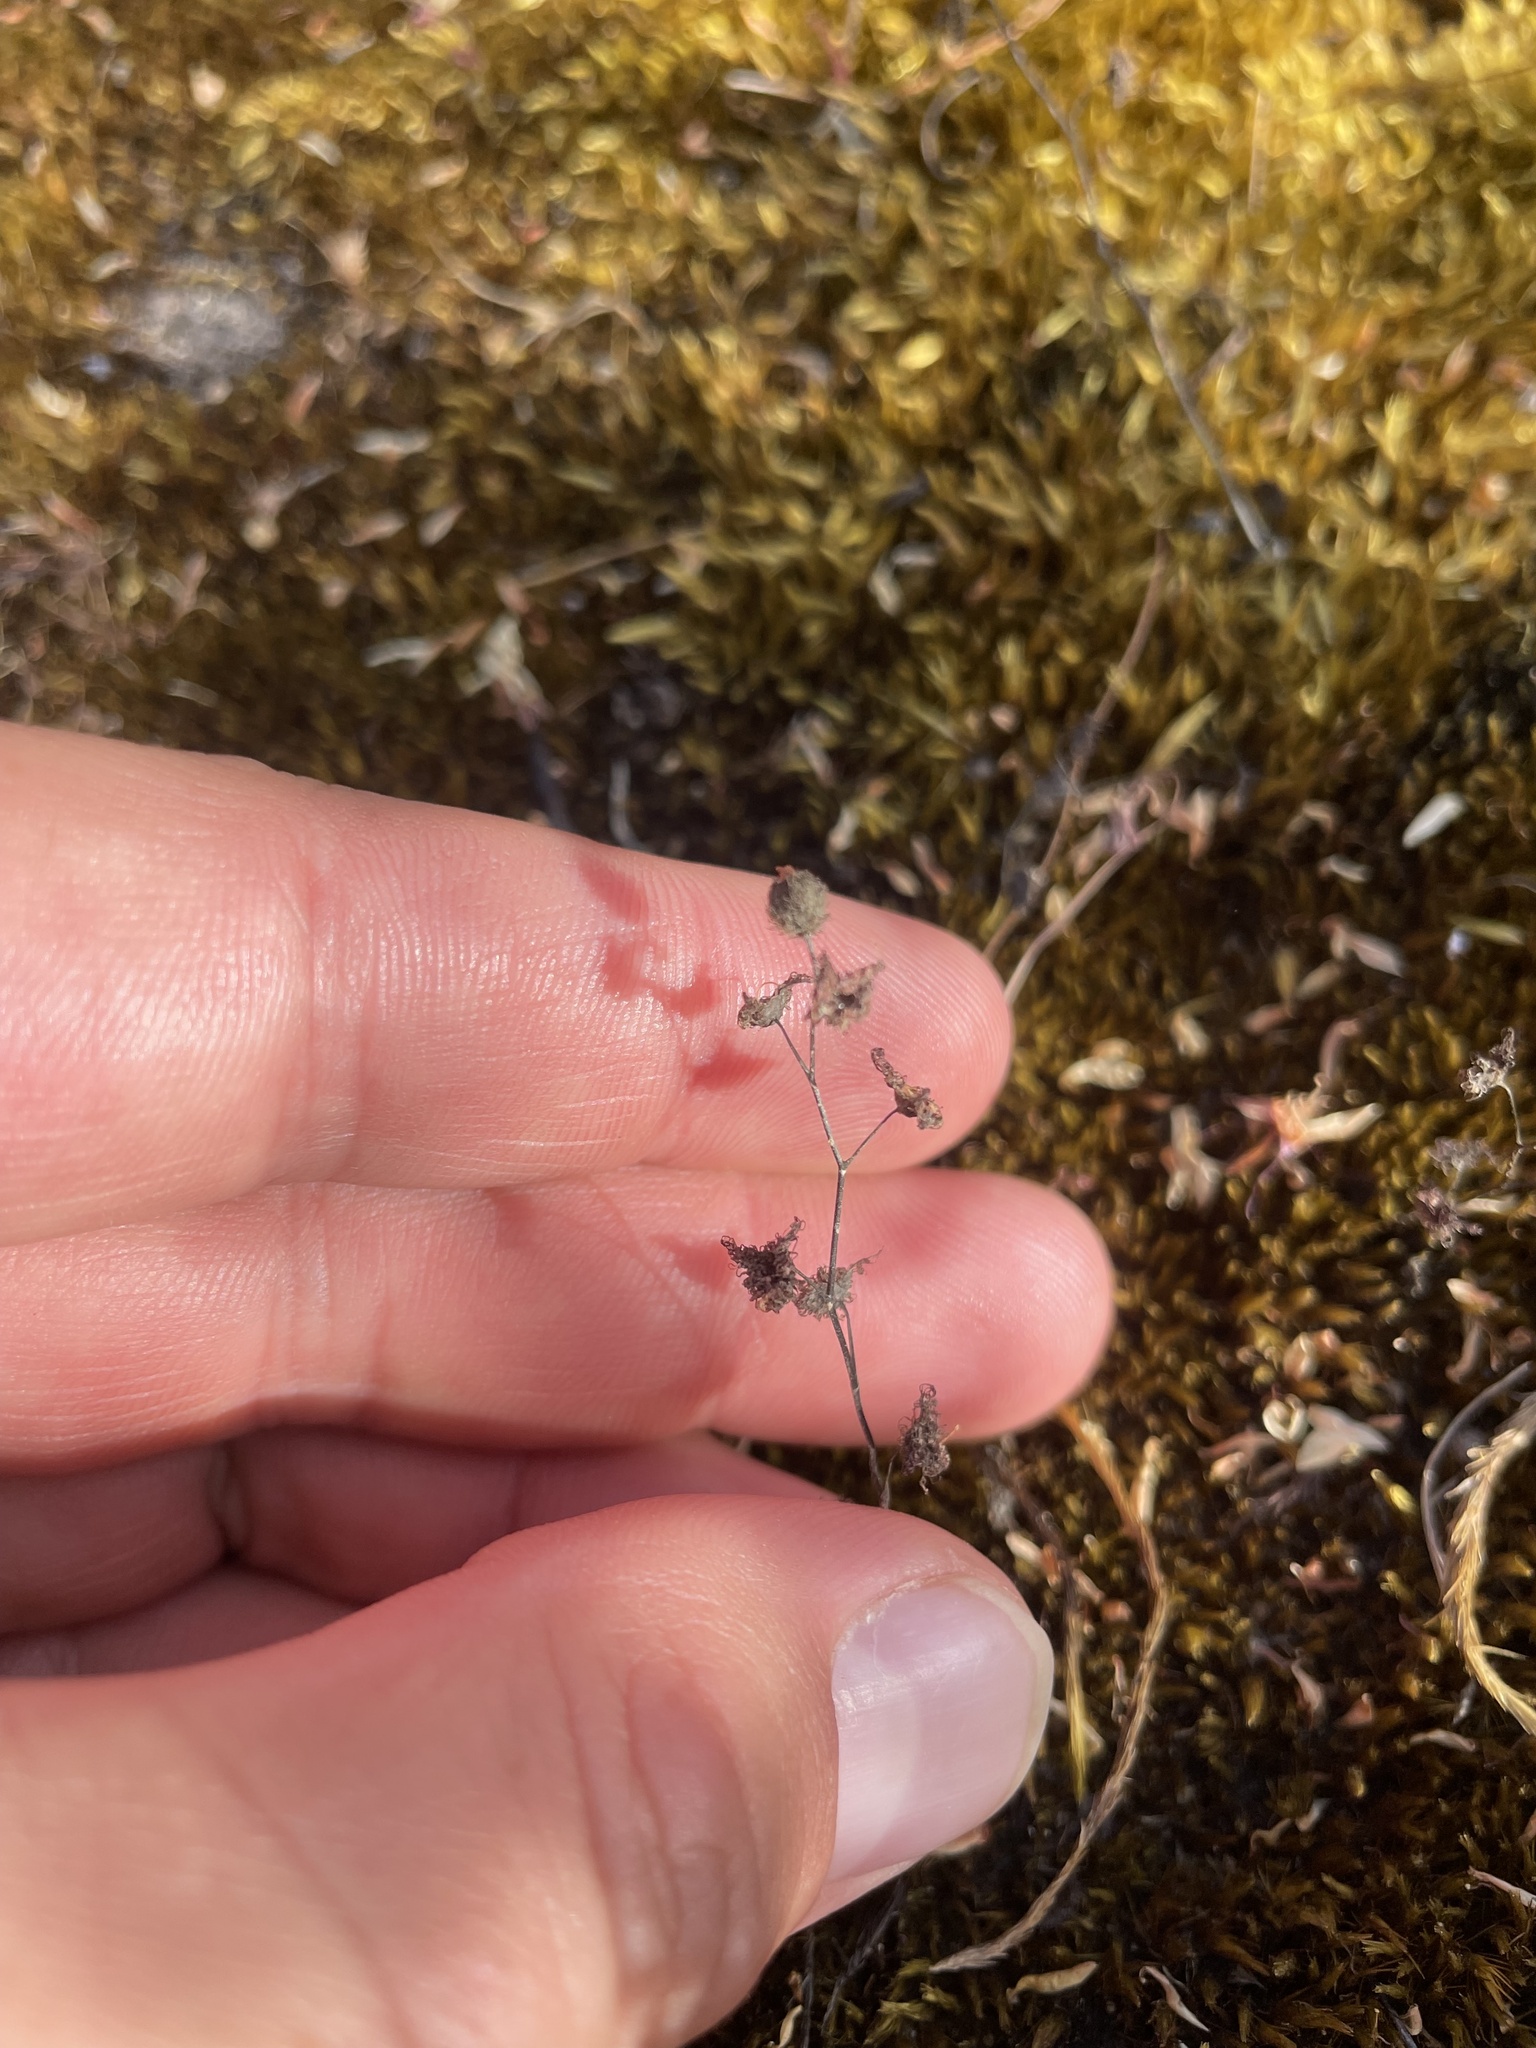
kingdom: Plantae
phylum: Tracheophyta
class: Magnoliopsida
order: Caryophyllales
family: Droseraceae
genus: Drosera
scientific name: Drosera gunniana
